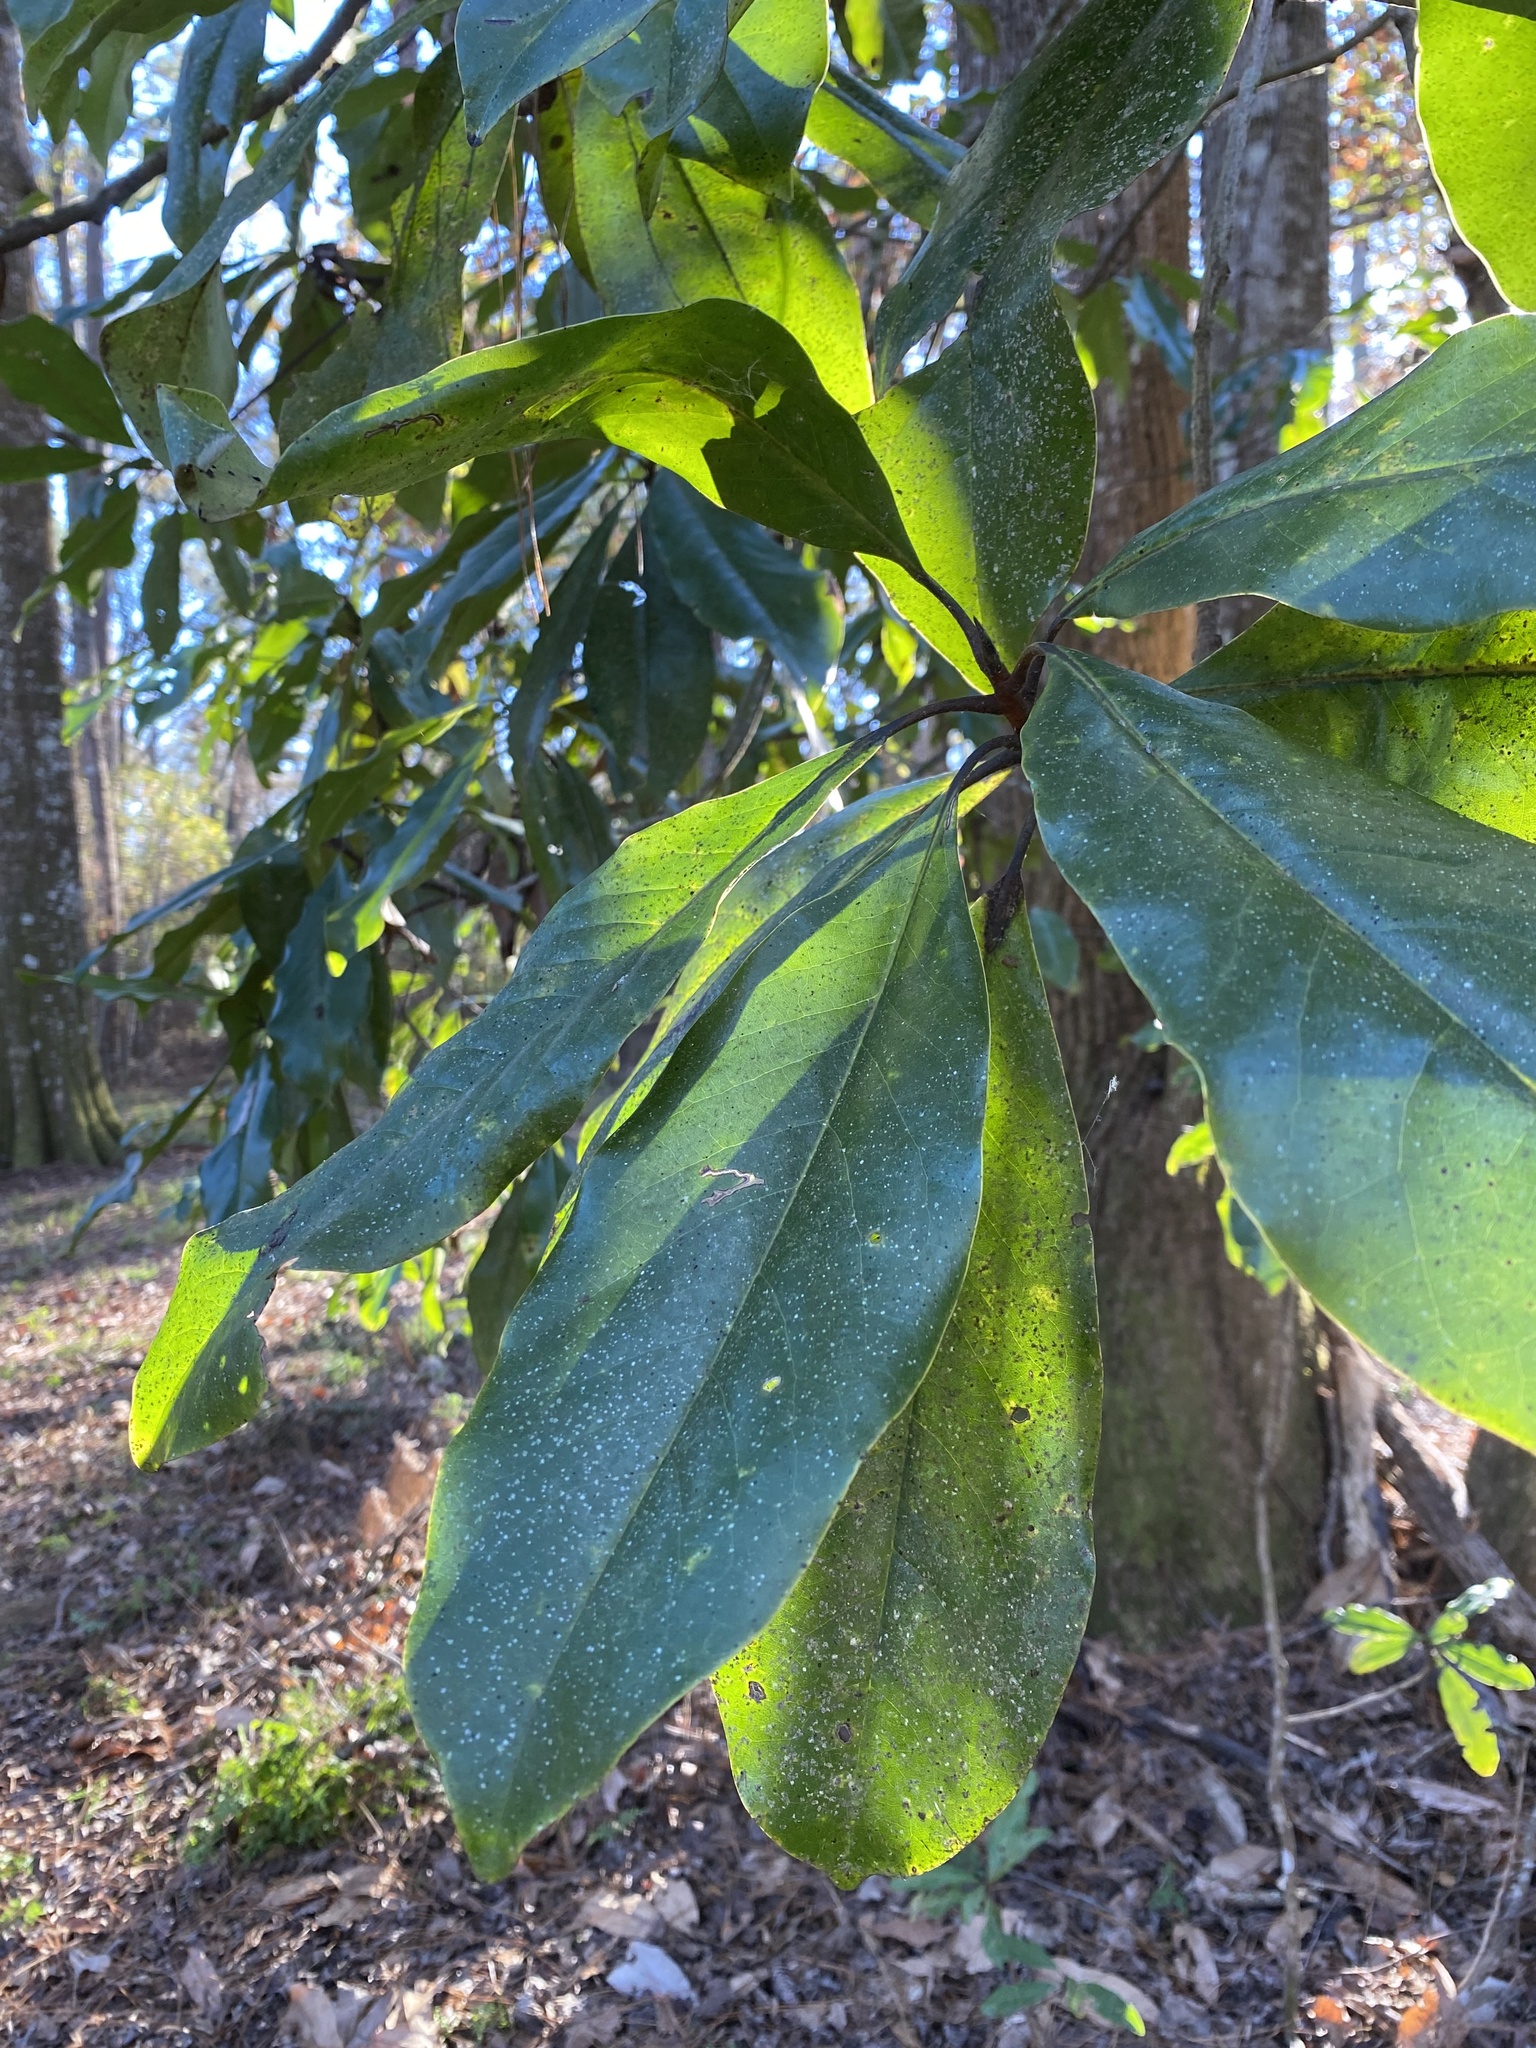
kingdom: Plantae
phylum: Tracheophyta
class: Magnoliopsida
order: Magnoliales
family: Magnoliaceae
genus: Magnolia
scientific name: Magnolia grandiflora
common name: Southern magnolia
